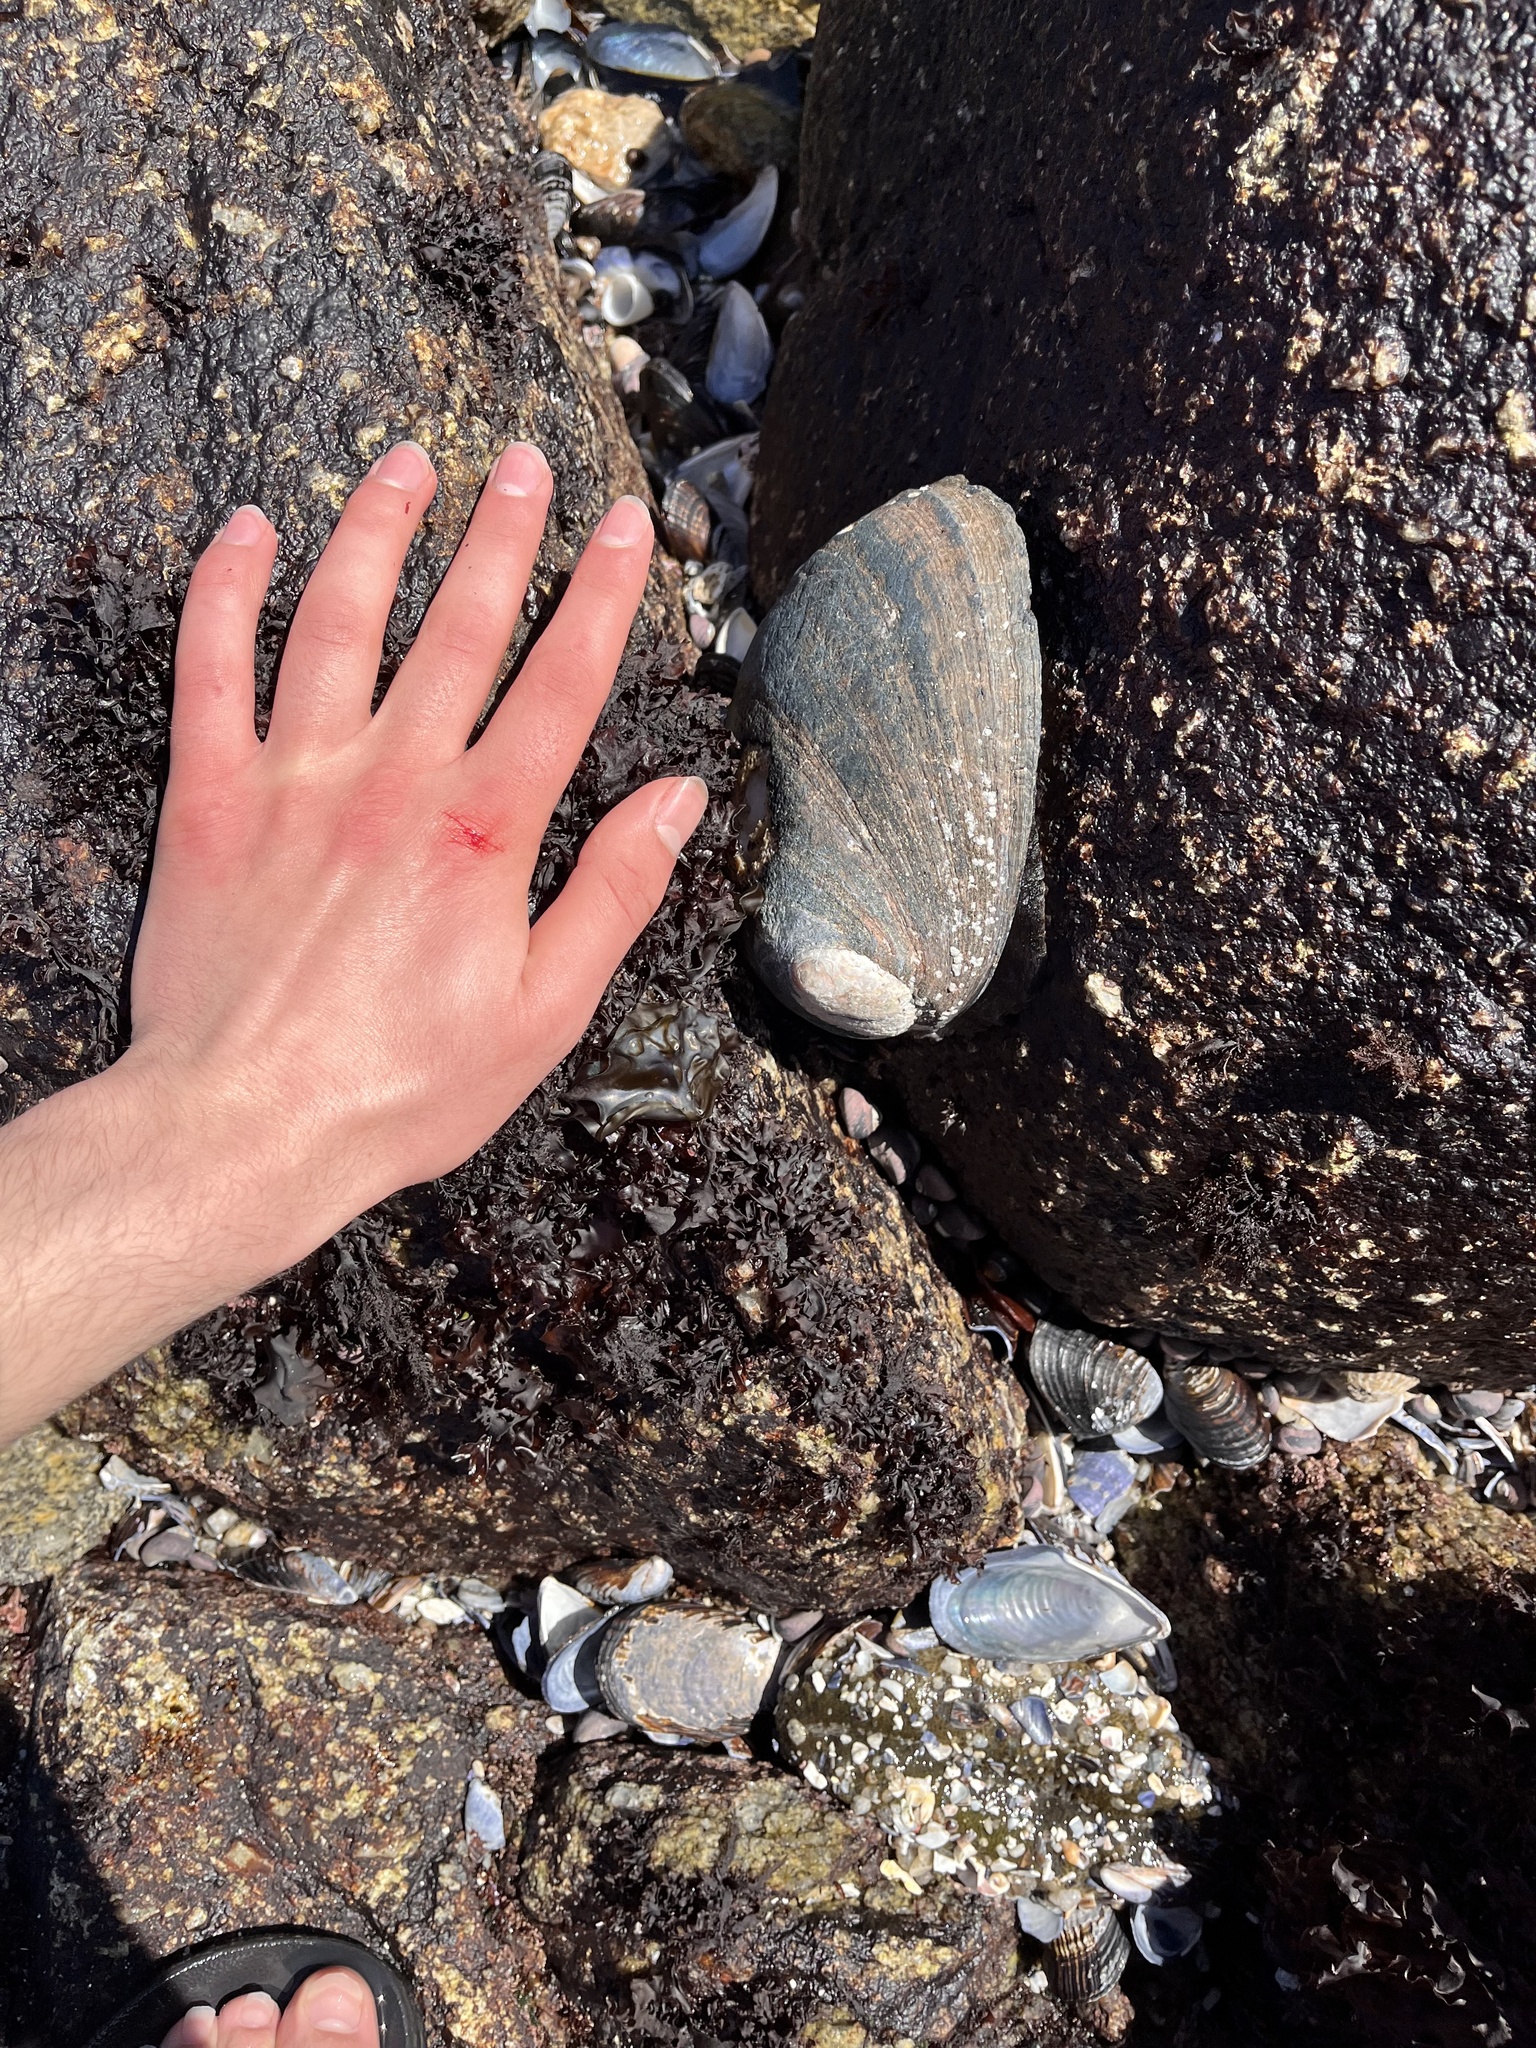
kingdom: Animalia
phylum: Mollusca
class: Gastropoda
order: Lepetellida
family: Haliotidae
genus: Haliotis
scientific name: Haliotis cracherodii
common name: Black abalone
